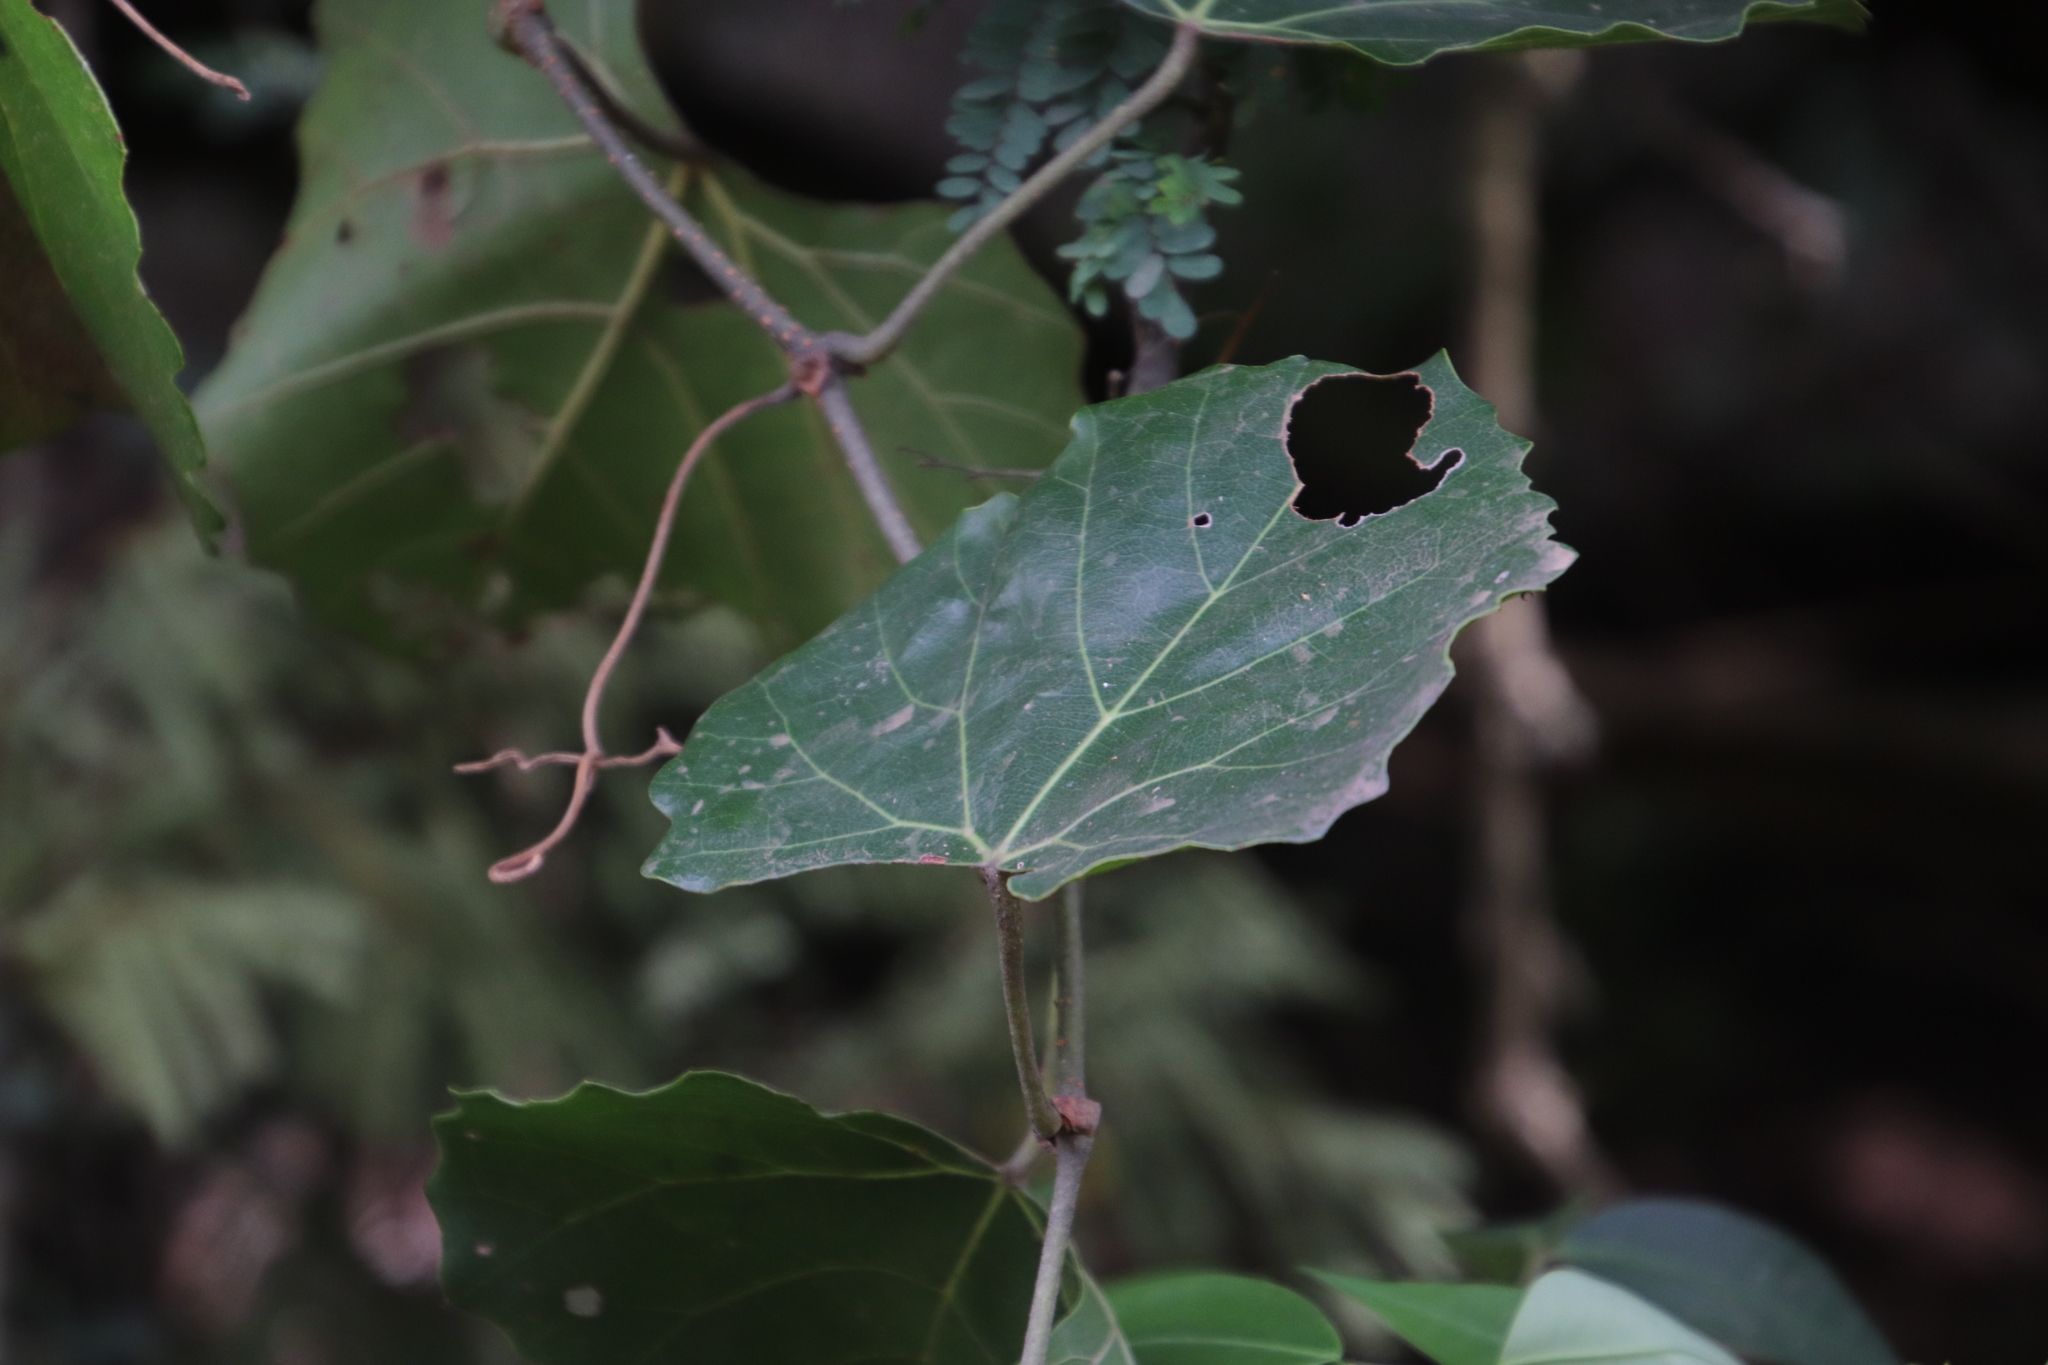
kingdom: Plantae
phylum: Tracheophyta
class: Magnoliopsida
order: Vitales
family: Vitaceae
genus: Rhoicissus
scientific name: Rhoicissus tomentosa
